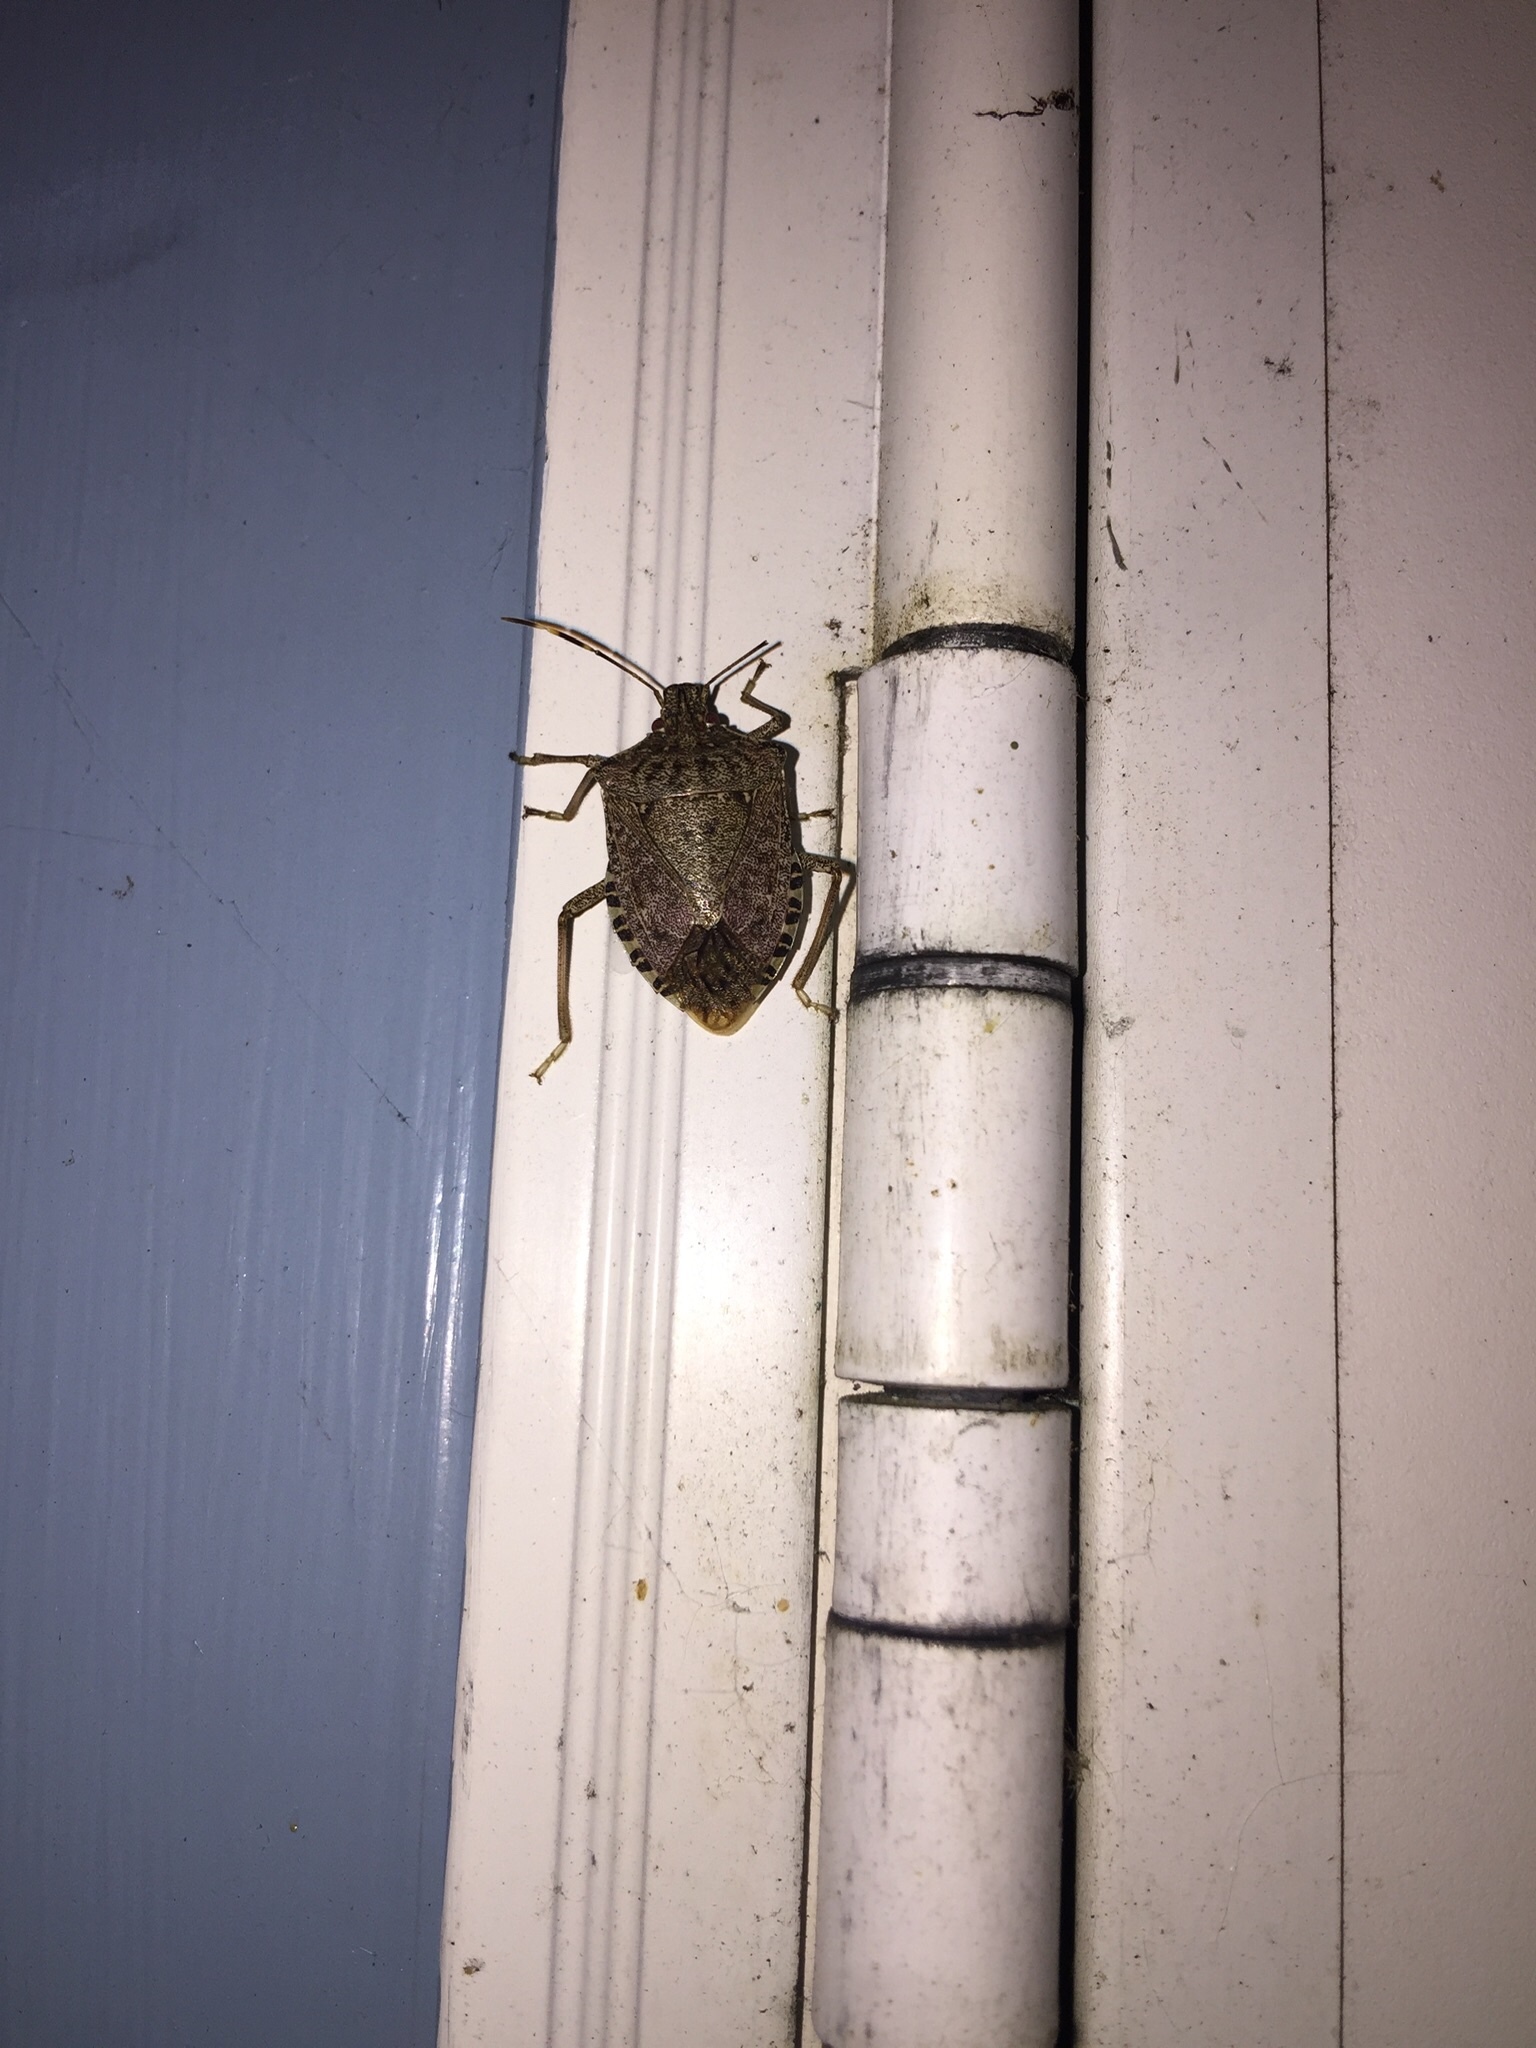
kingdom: Animalia
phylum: Arthropoda
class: Insecta
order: Hemiptera
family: Pentatomidae
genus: Halyomorpha
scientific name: Halyomorpha halys
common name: Brown marmorated stink bug
